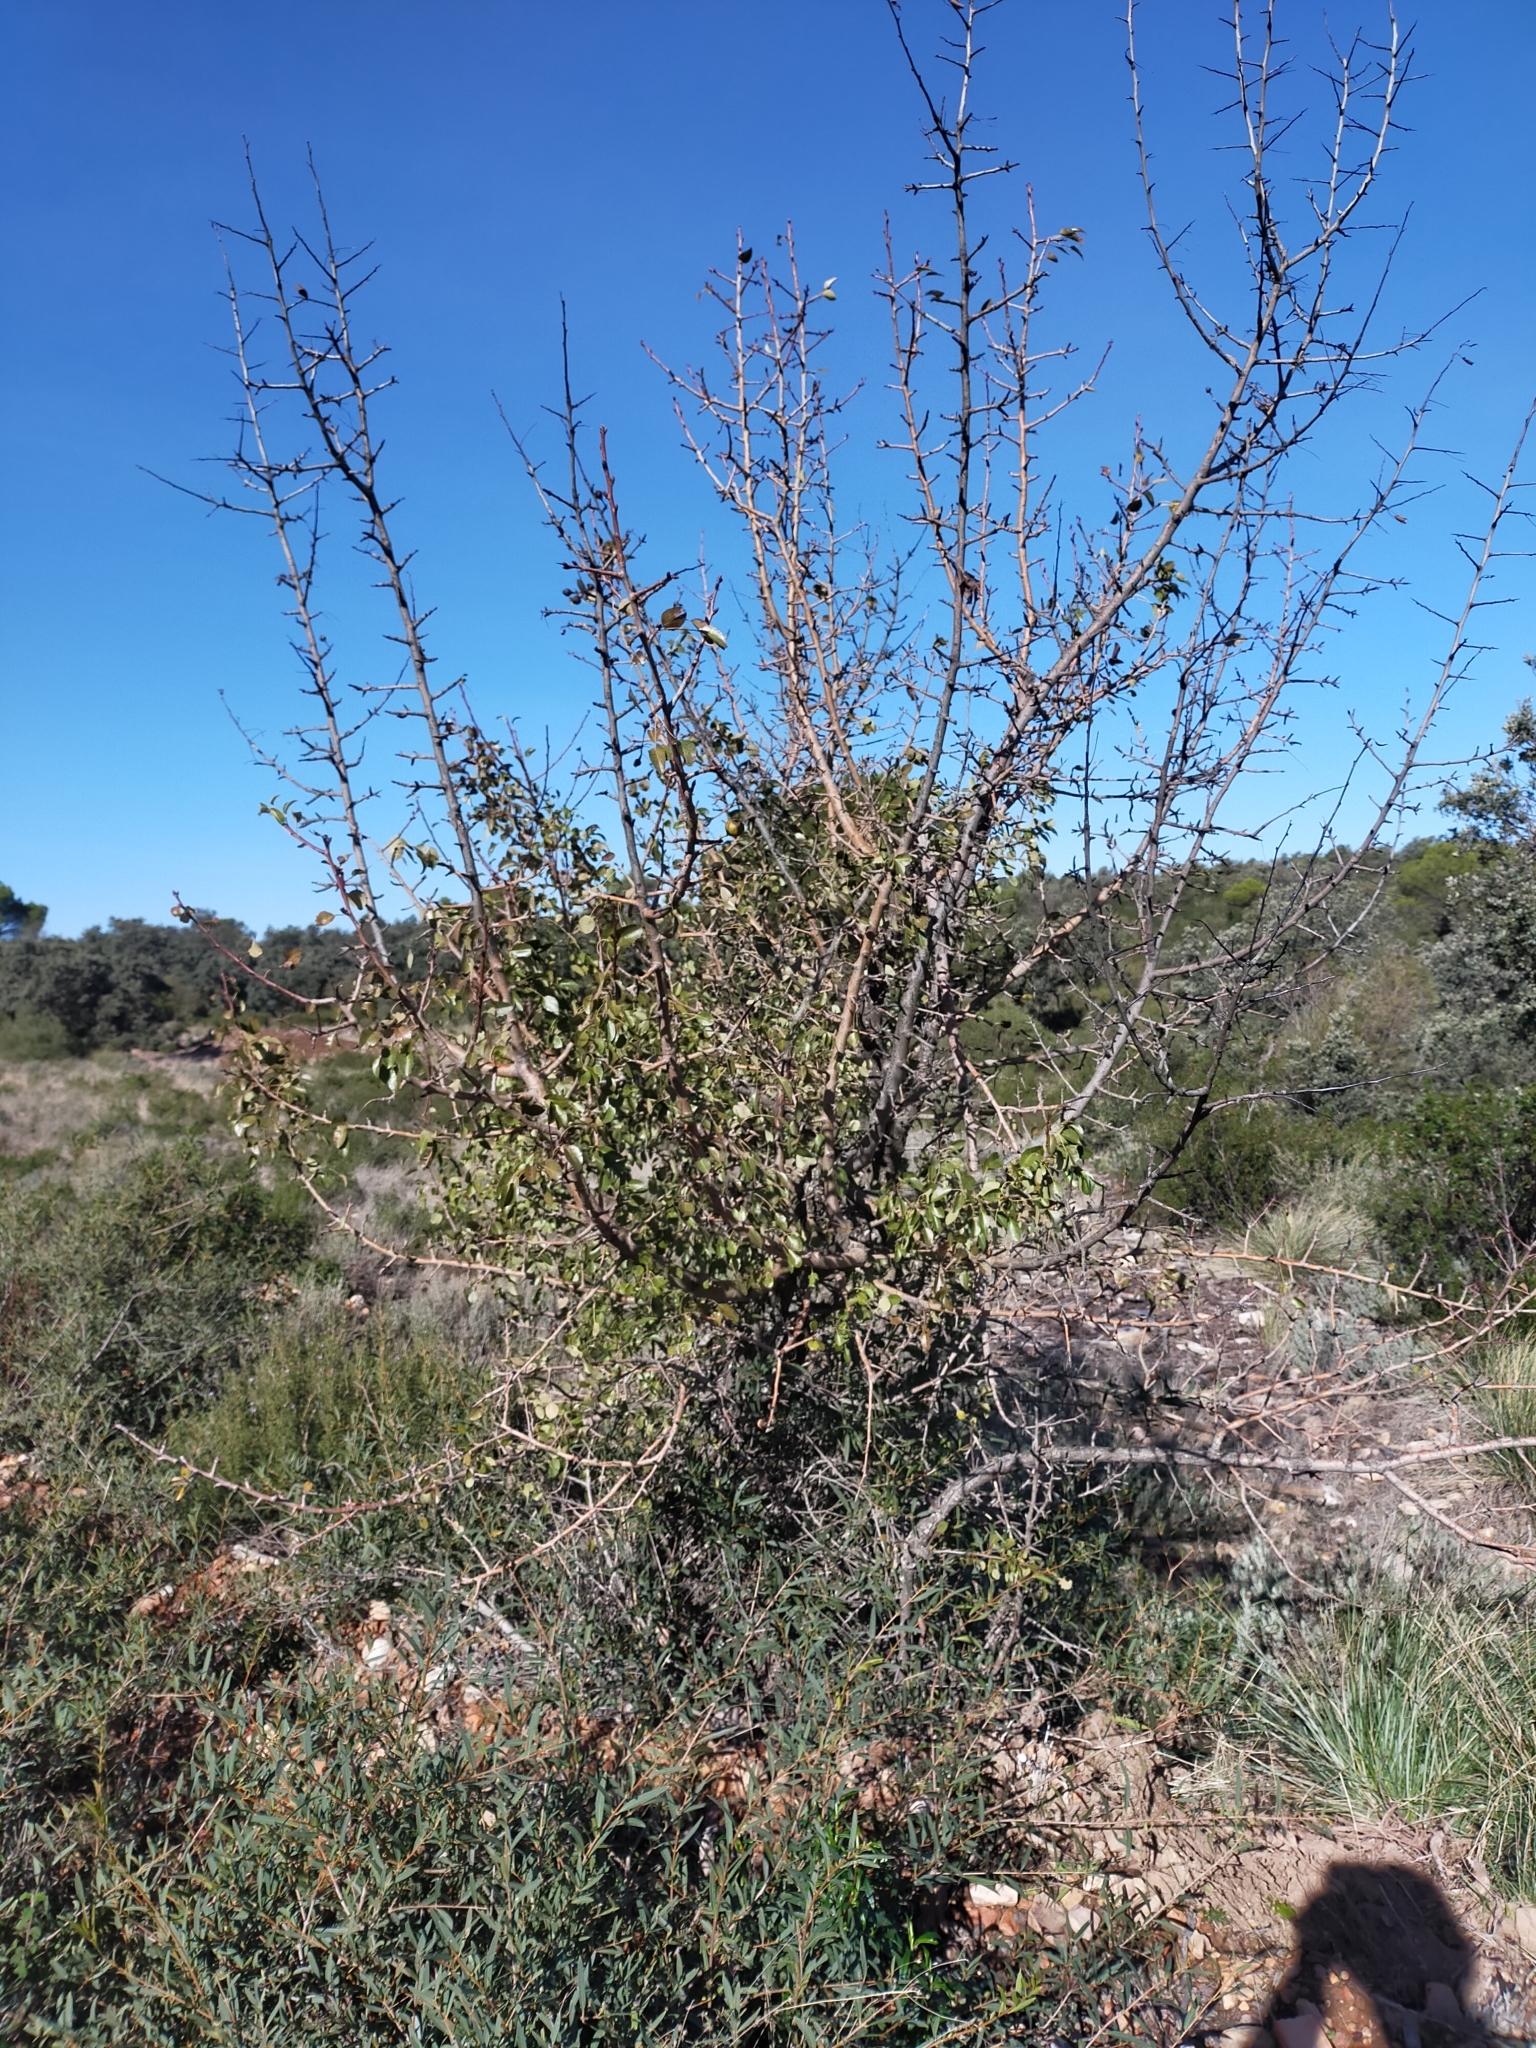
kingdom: Plantae
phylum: Tracheophyta
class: Magnoliopsida
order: Rosales
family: Rosaceae
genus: Pyrus
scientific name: Pyrus bourgaeana
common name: Iberian pear
